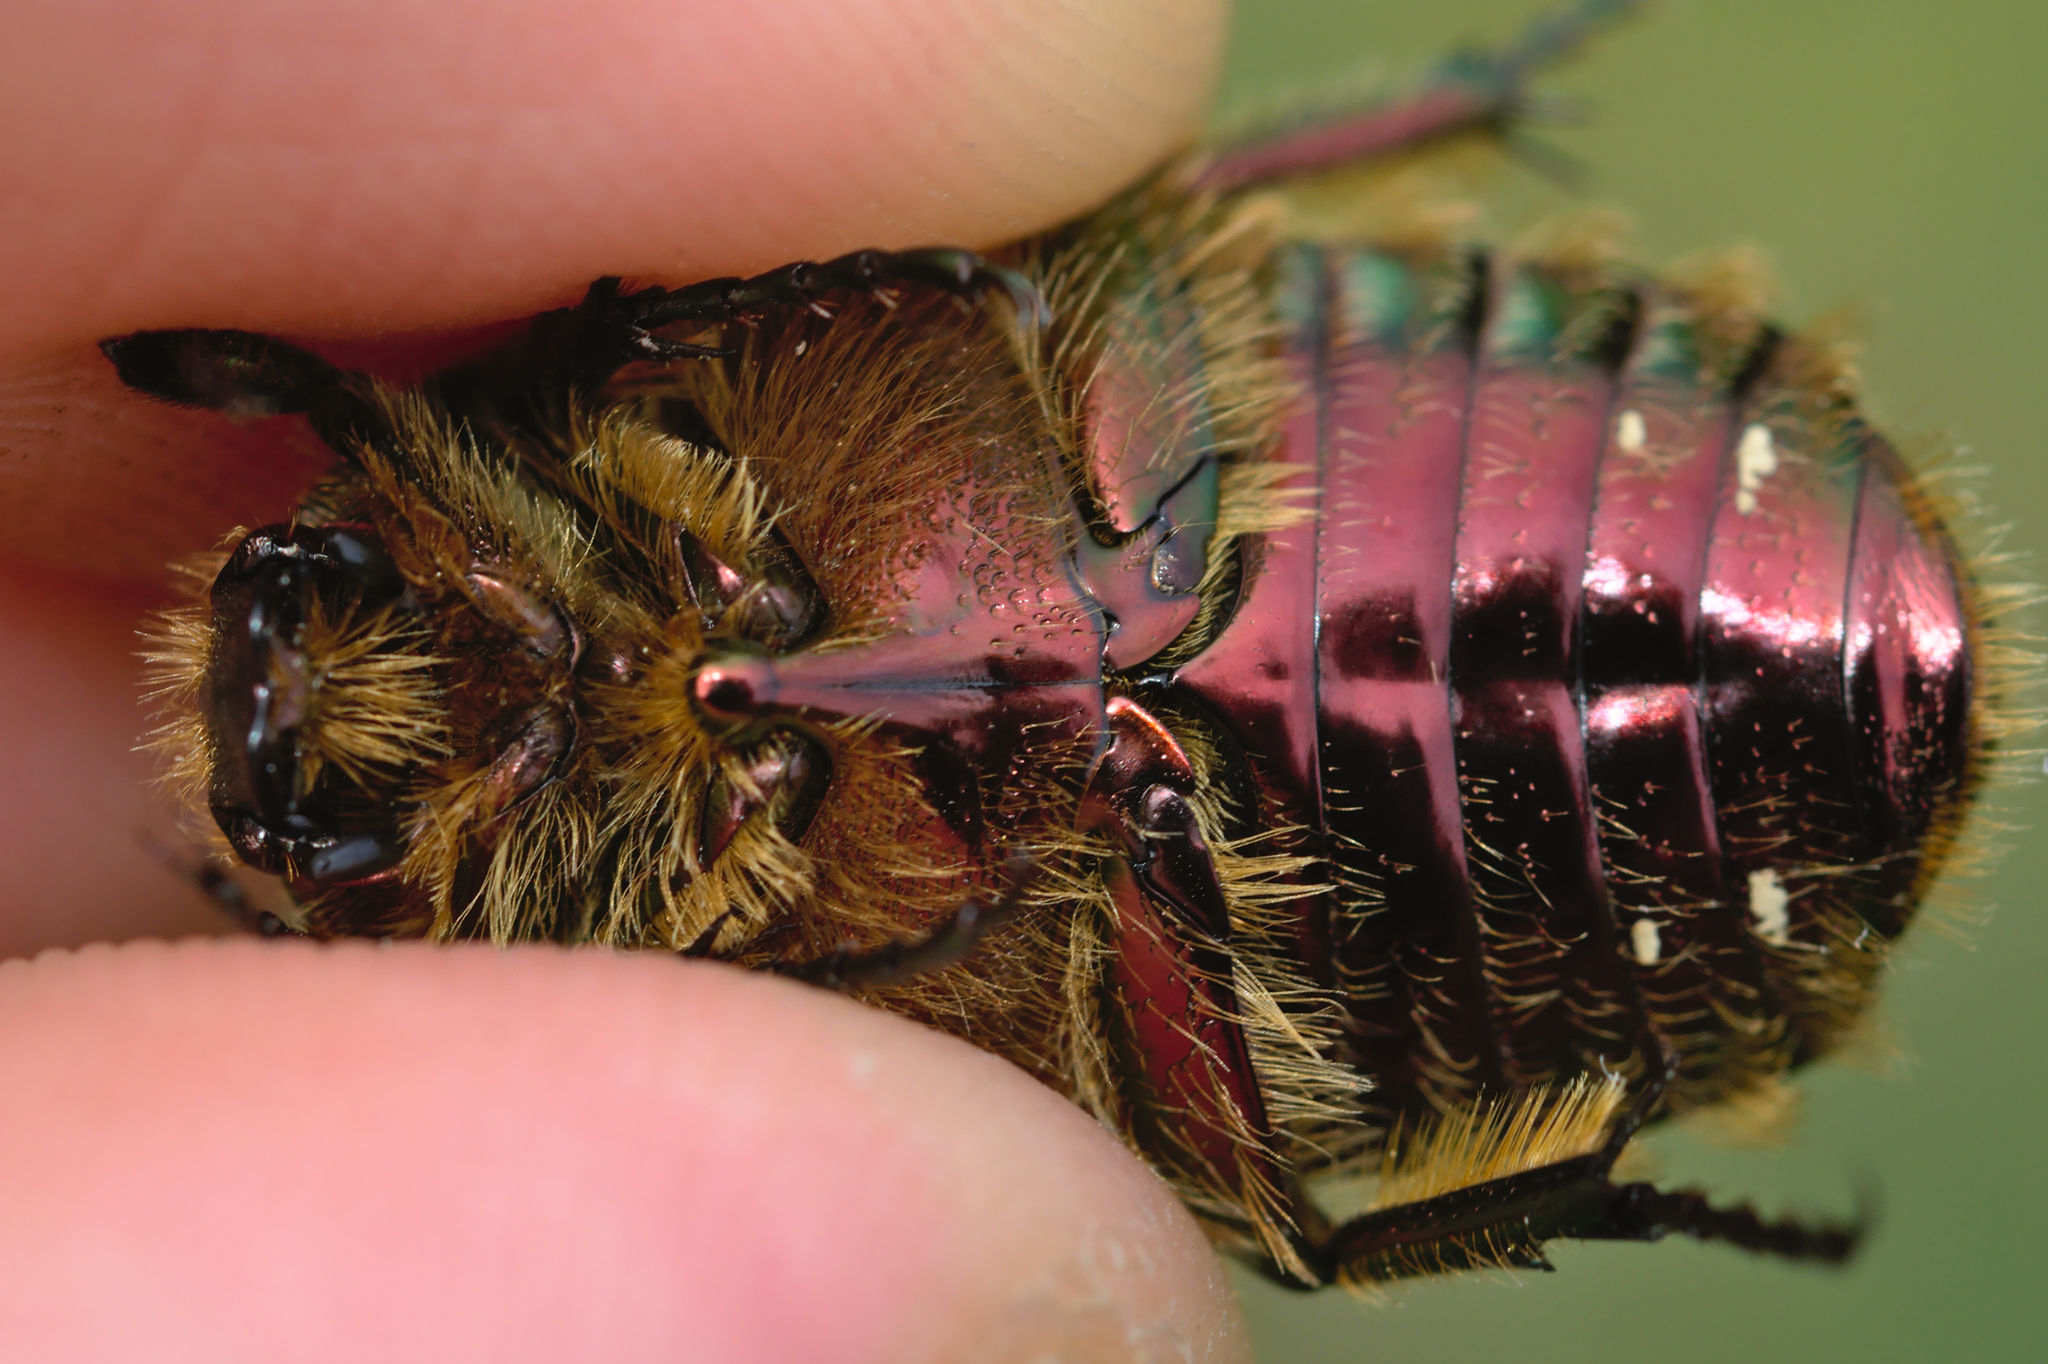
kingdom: Animalia
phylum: Arthropoda
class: Insecta
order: Coleoptera
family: Scarabaeidae
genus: Cetonia
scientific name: Cetonia aurata
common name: Rose chafer
